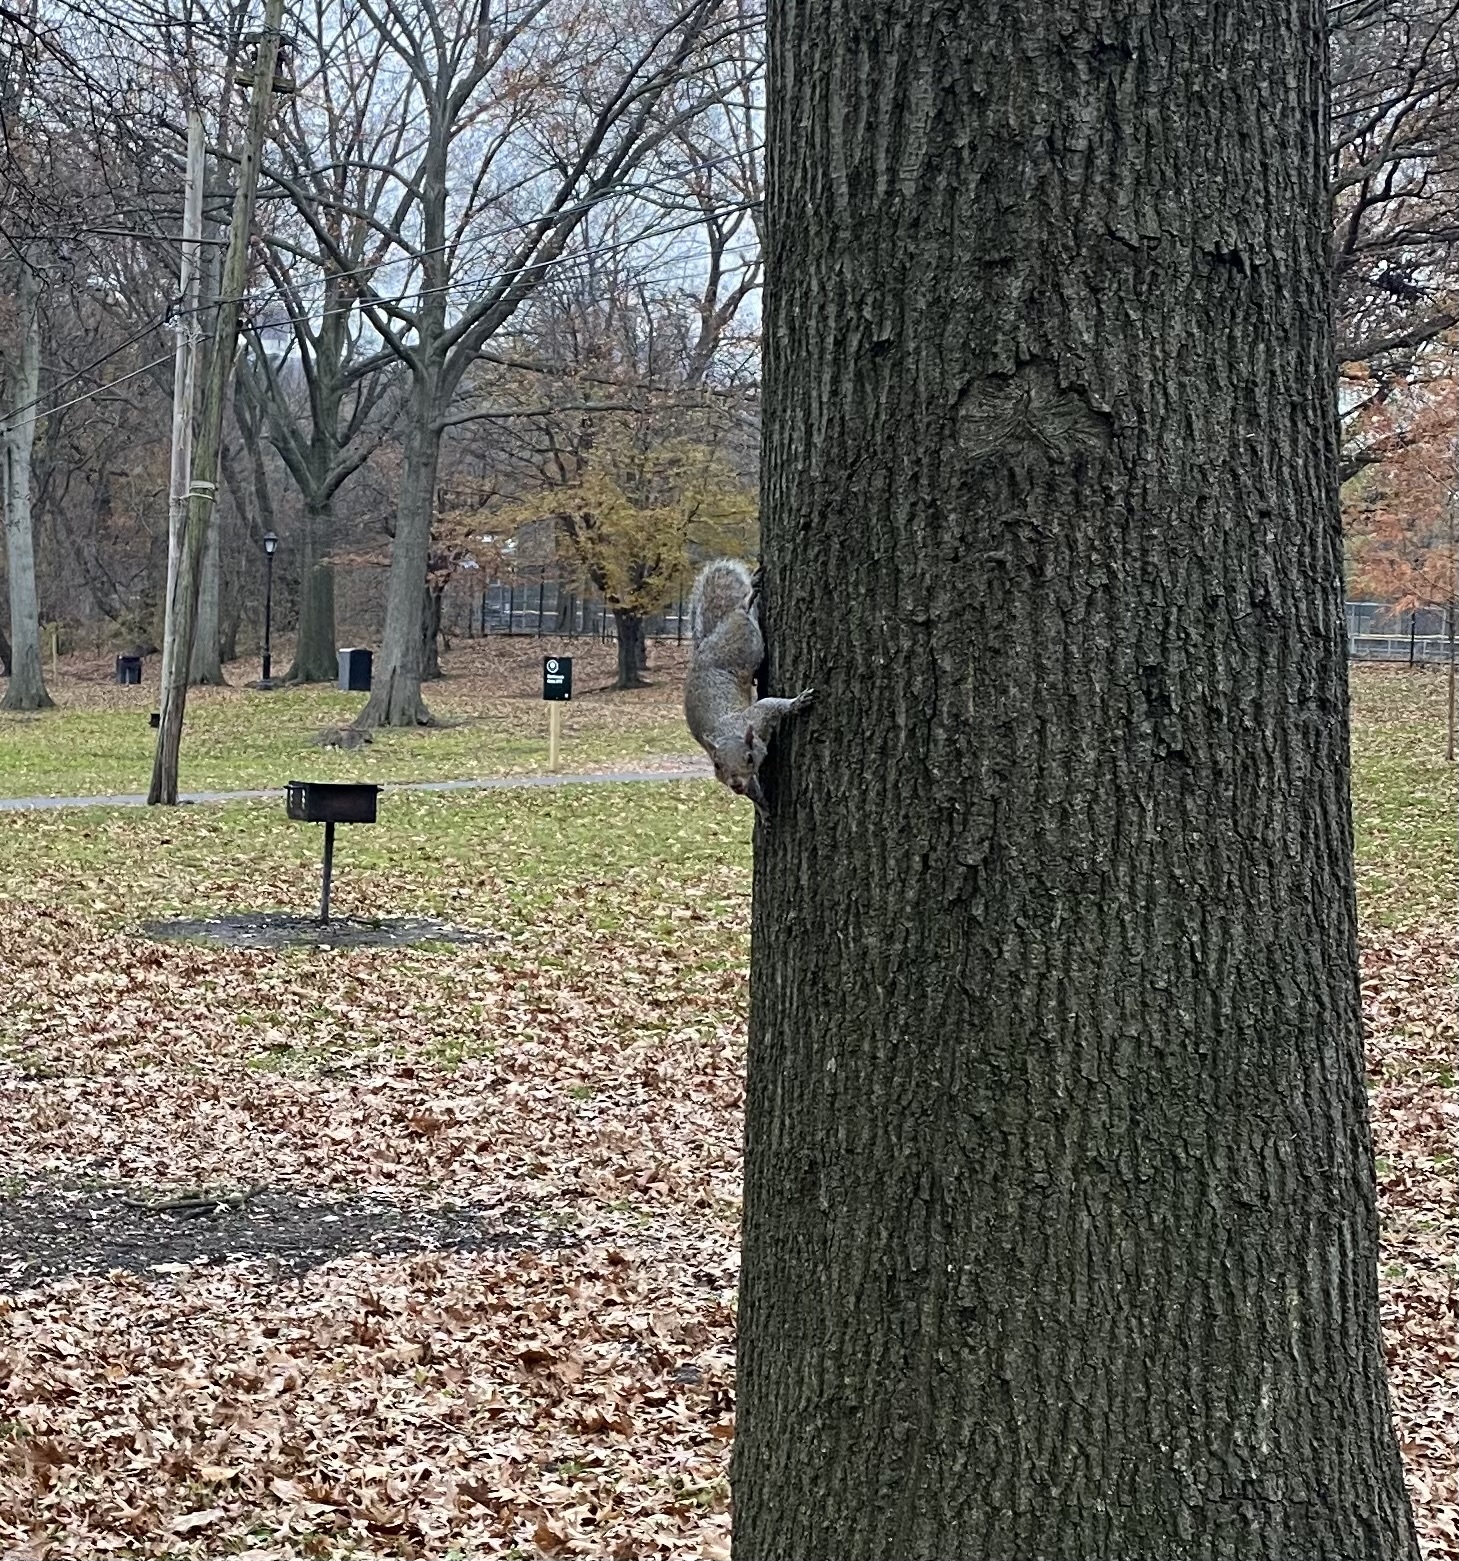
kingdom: Animalia
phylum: Chordata
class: Mammalia
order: Rodentia
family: Sciuridae
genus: Sciurus
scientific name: Sciurus carolinensis
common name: Eastern gray squirrel
